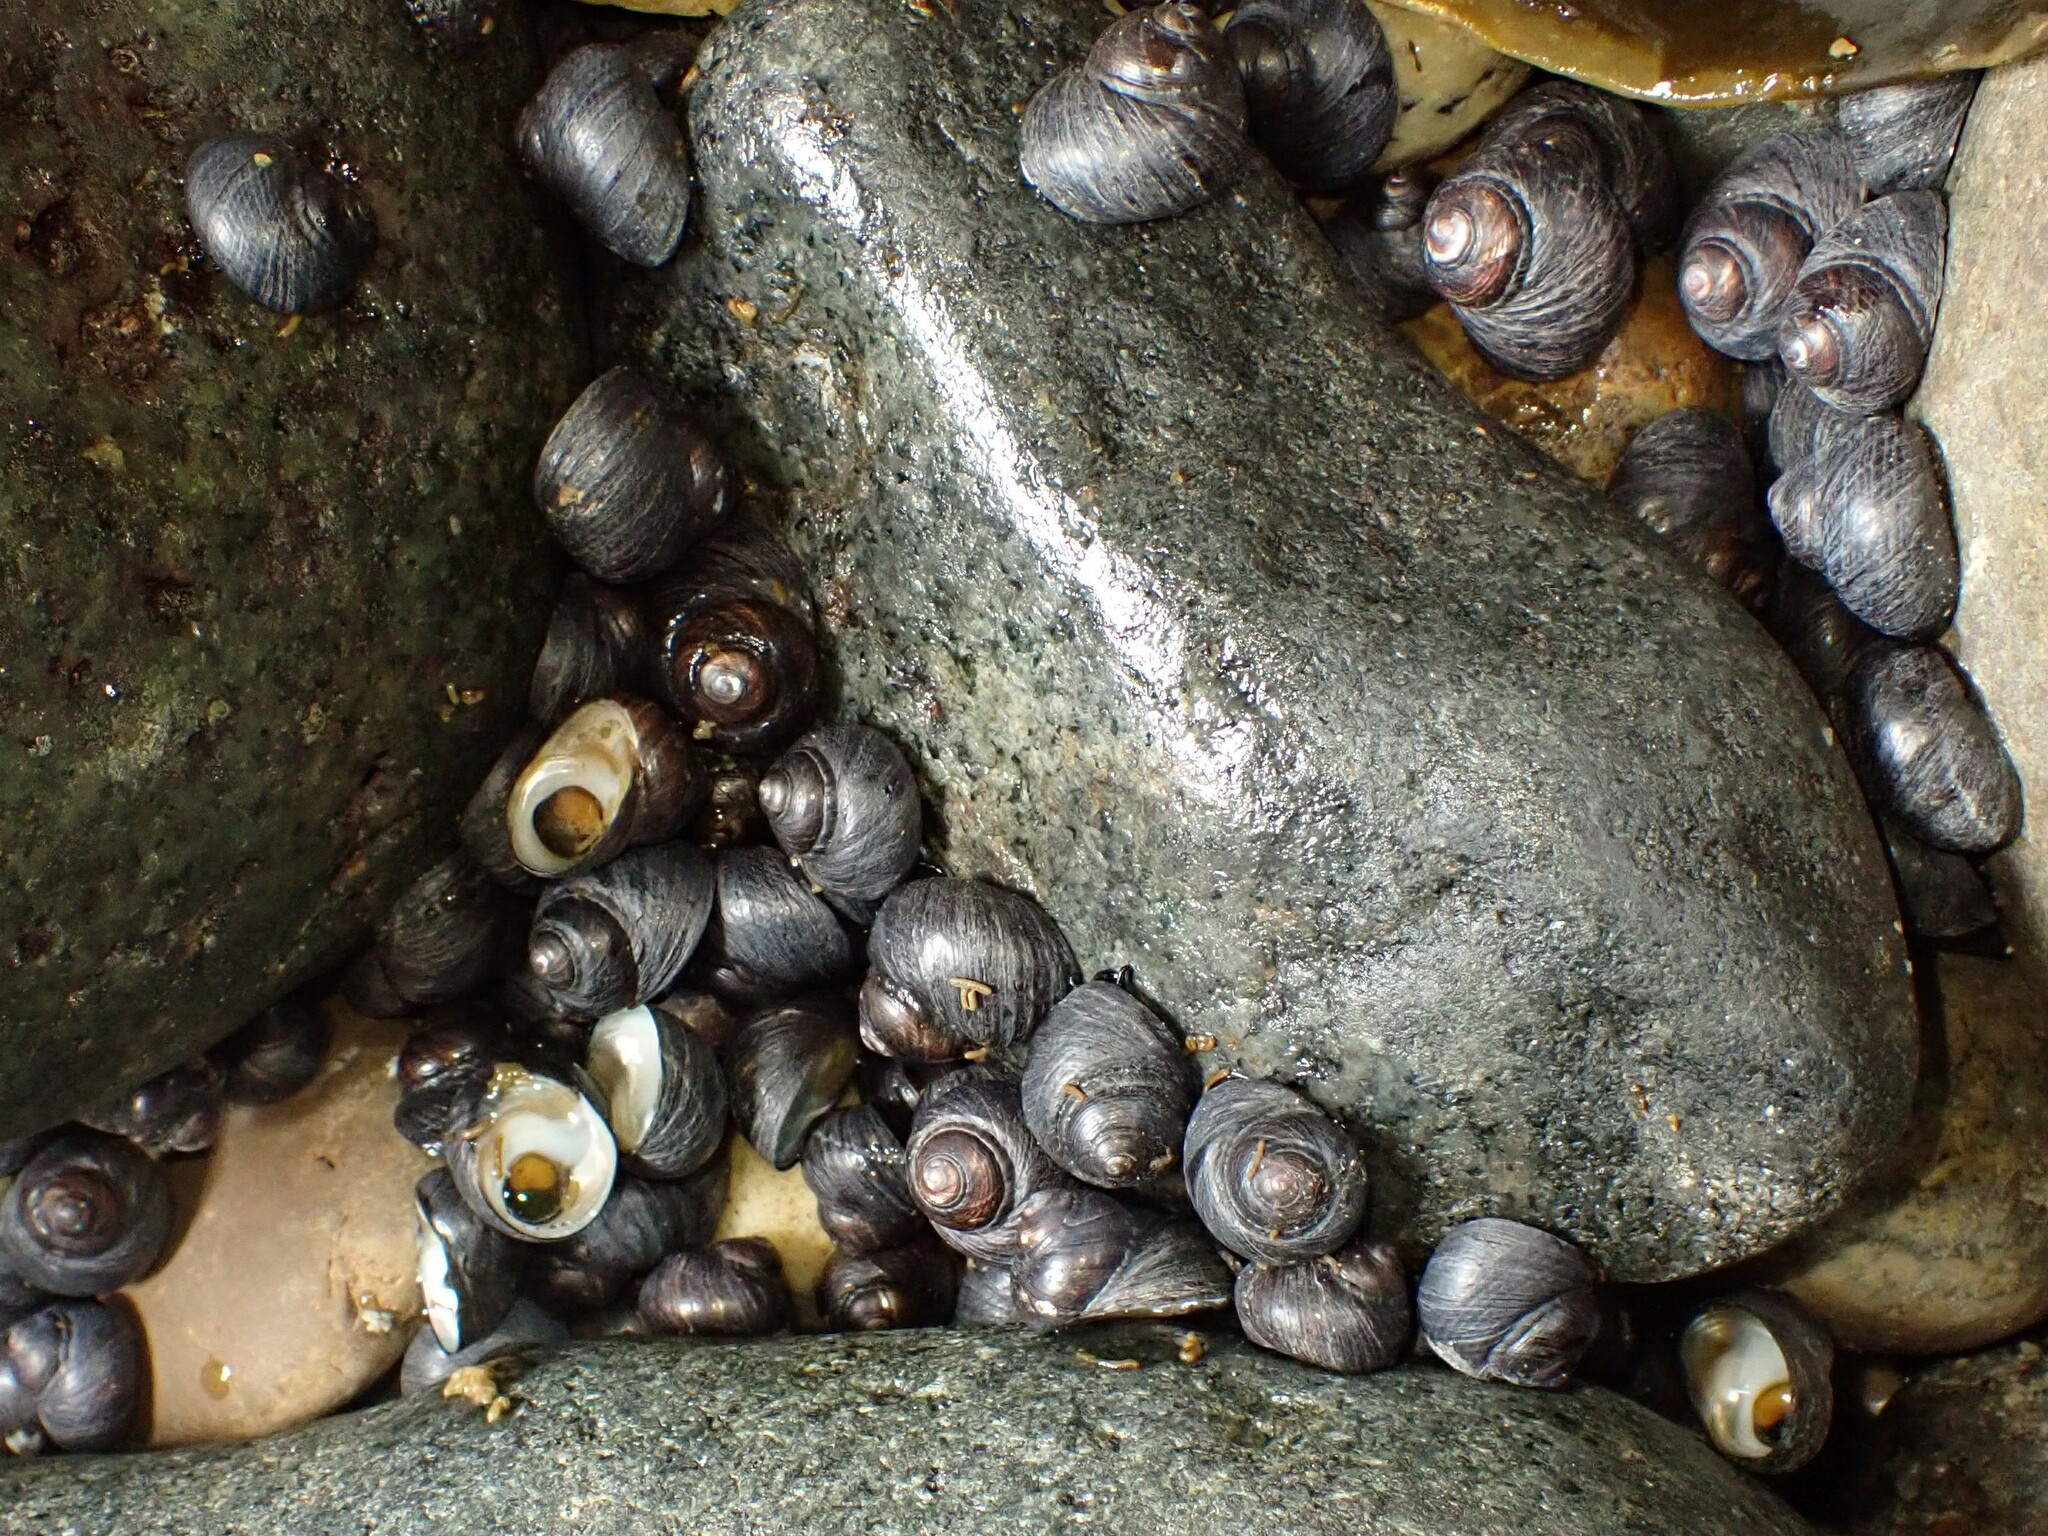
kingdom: Animalia
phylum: Mollusca
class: Gastropoda
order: Trochida
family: Trochidae
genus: Diloma
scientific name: Diloma nigerrimum
